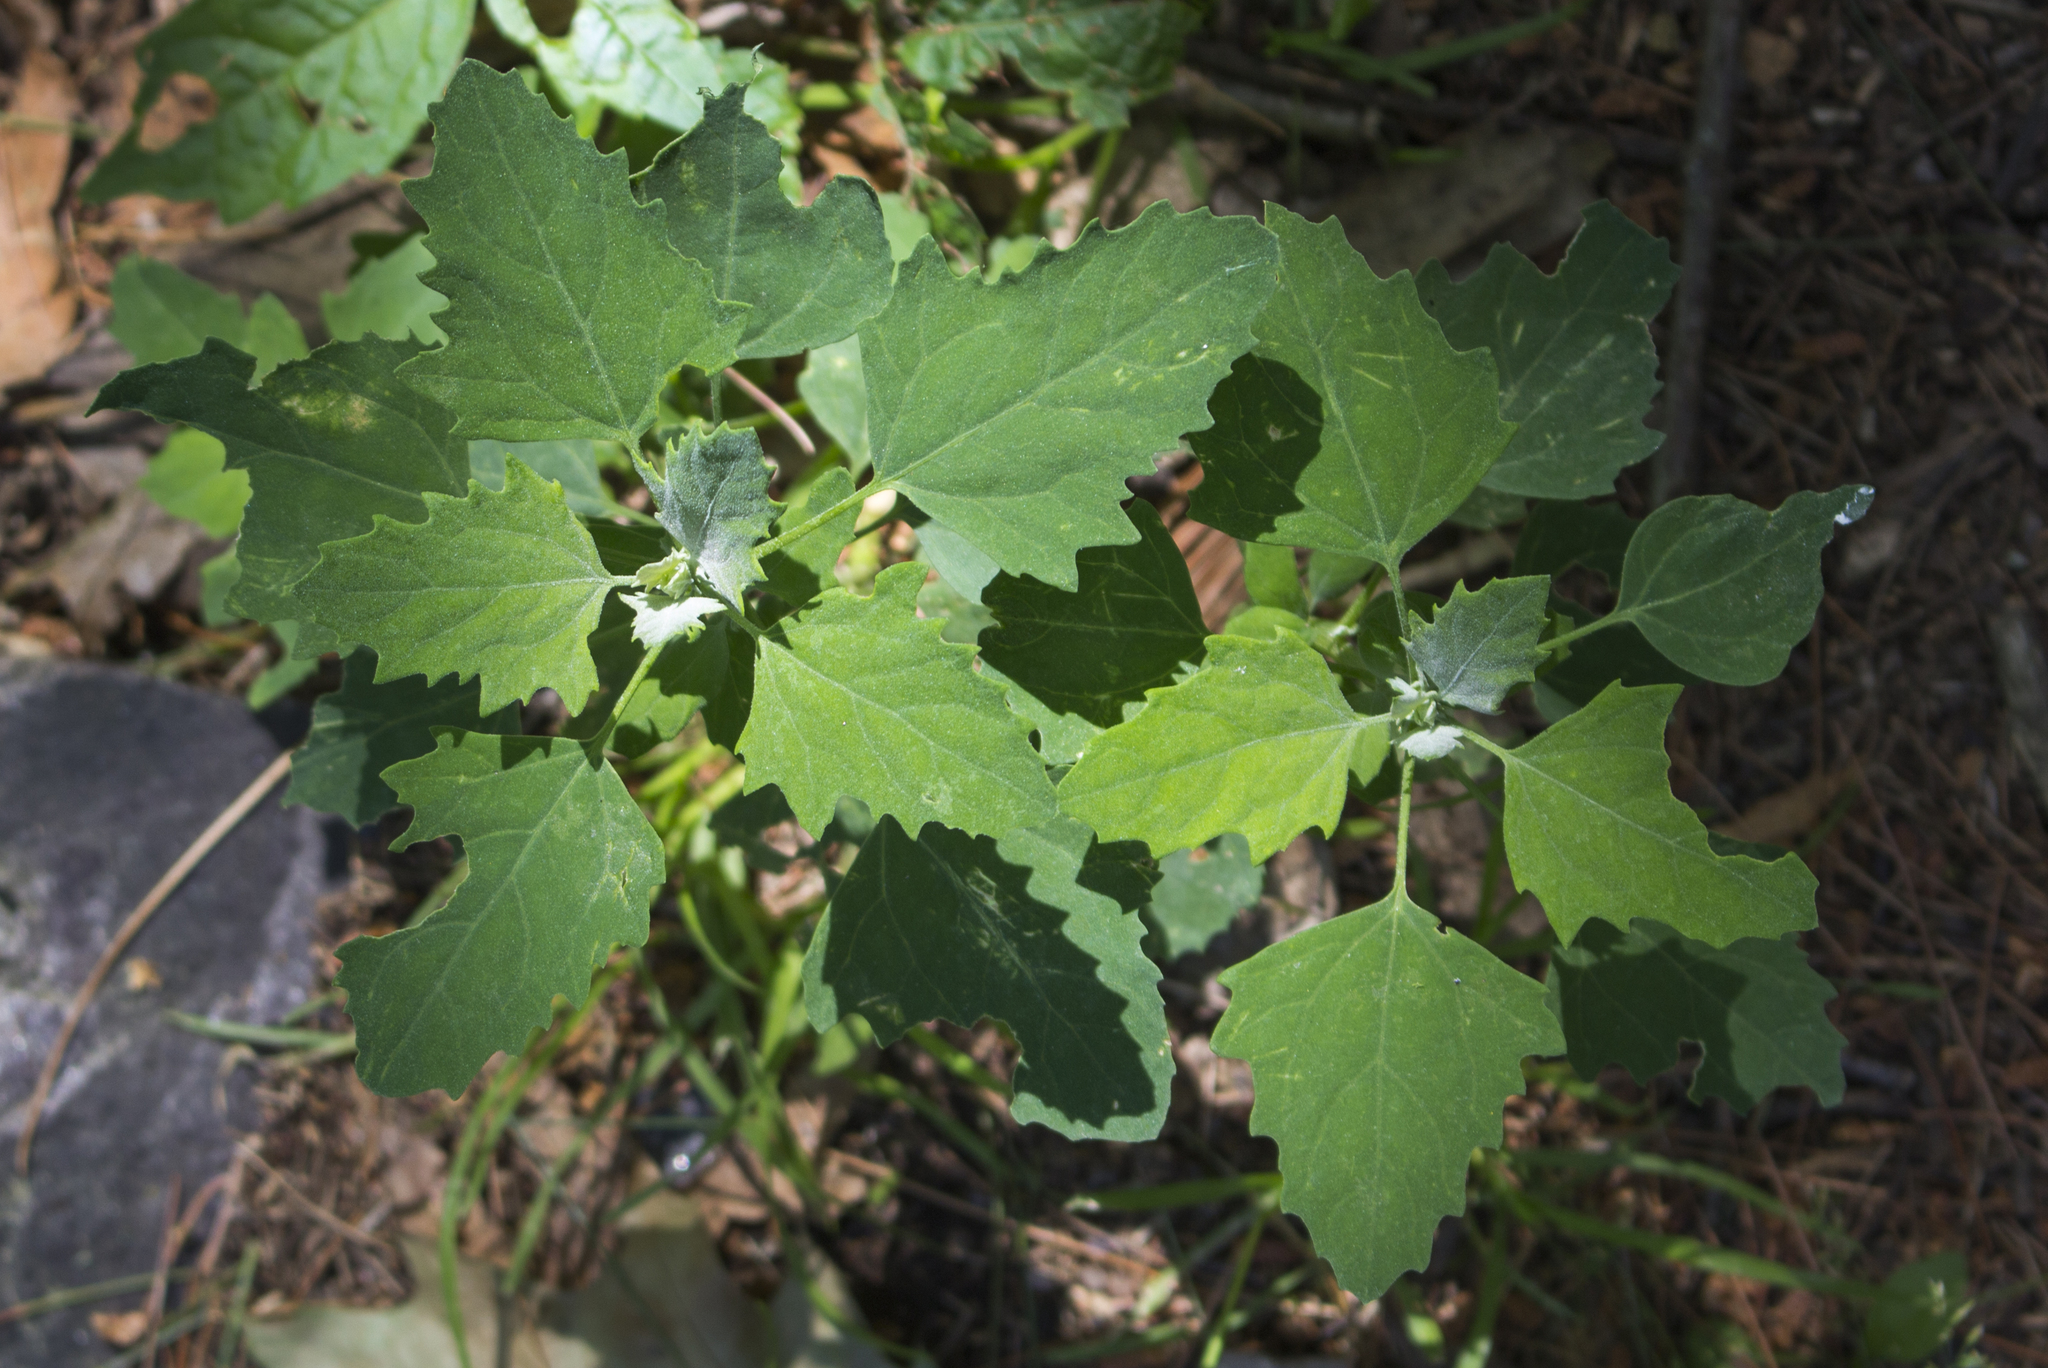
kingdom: Plantae
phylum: Tracheophyta
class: Magnoliopsida
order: Caryophyllales
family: Amaranthaceae
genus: Chenopodium
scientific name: Chenopodium album
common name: Fat-hen
